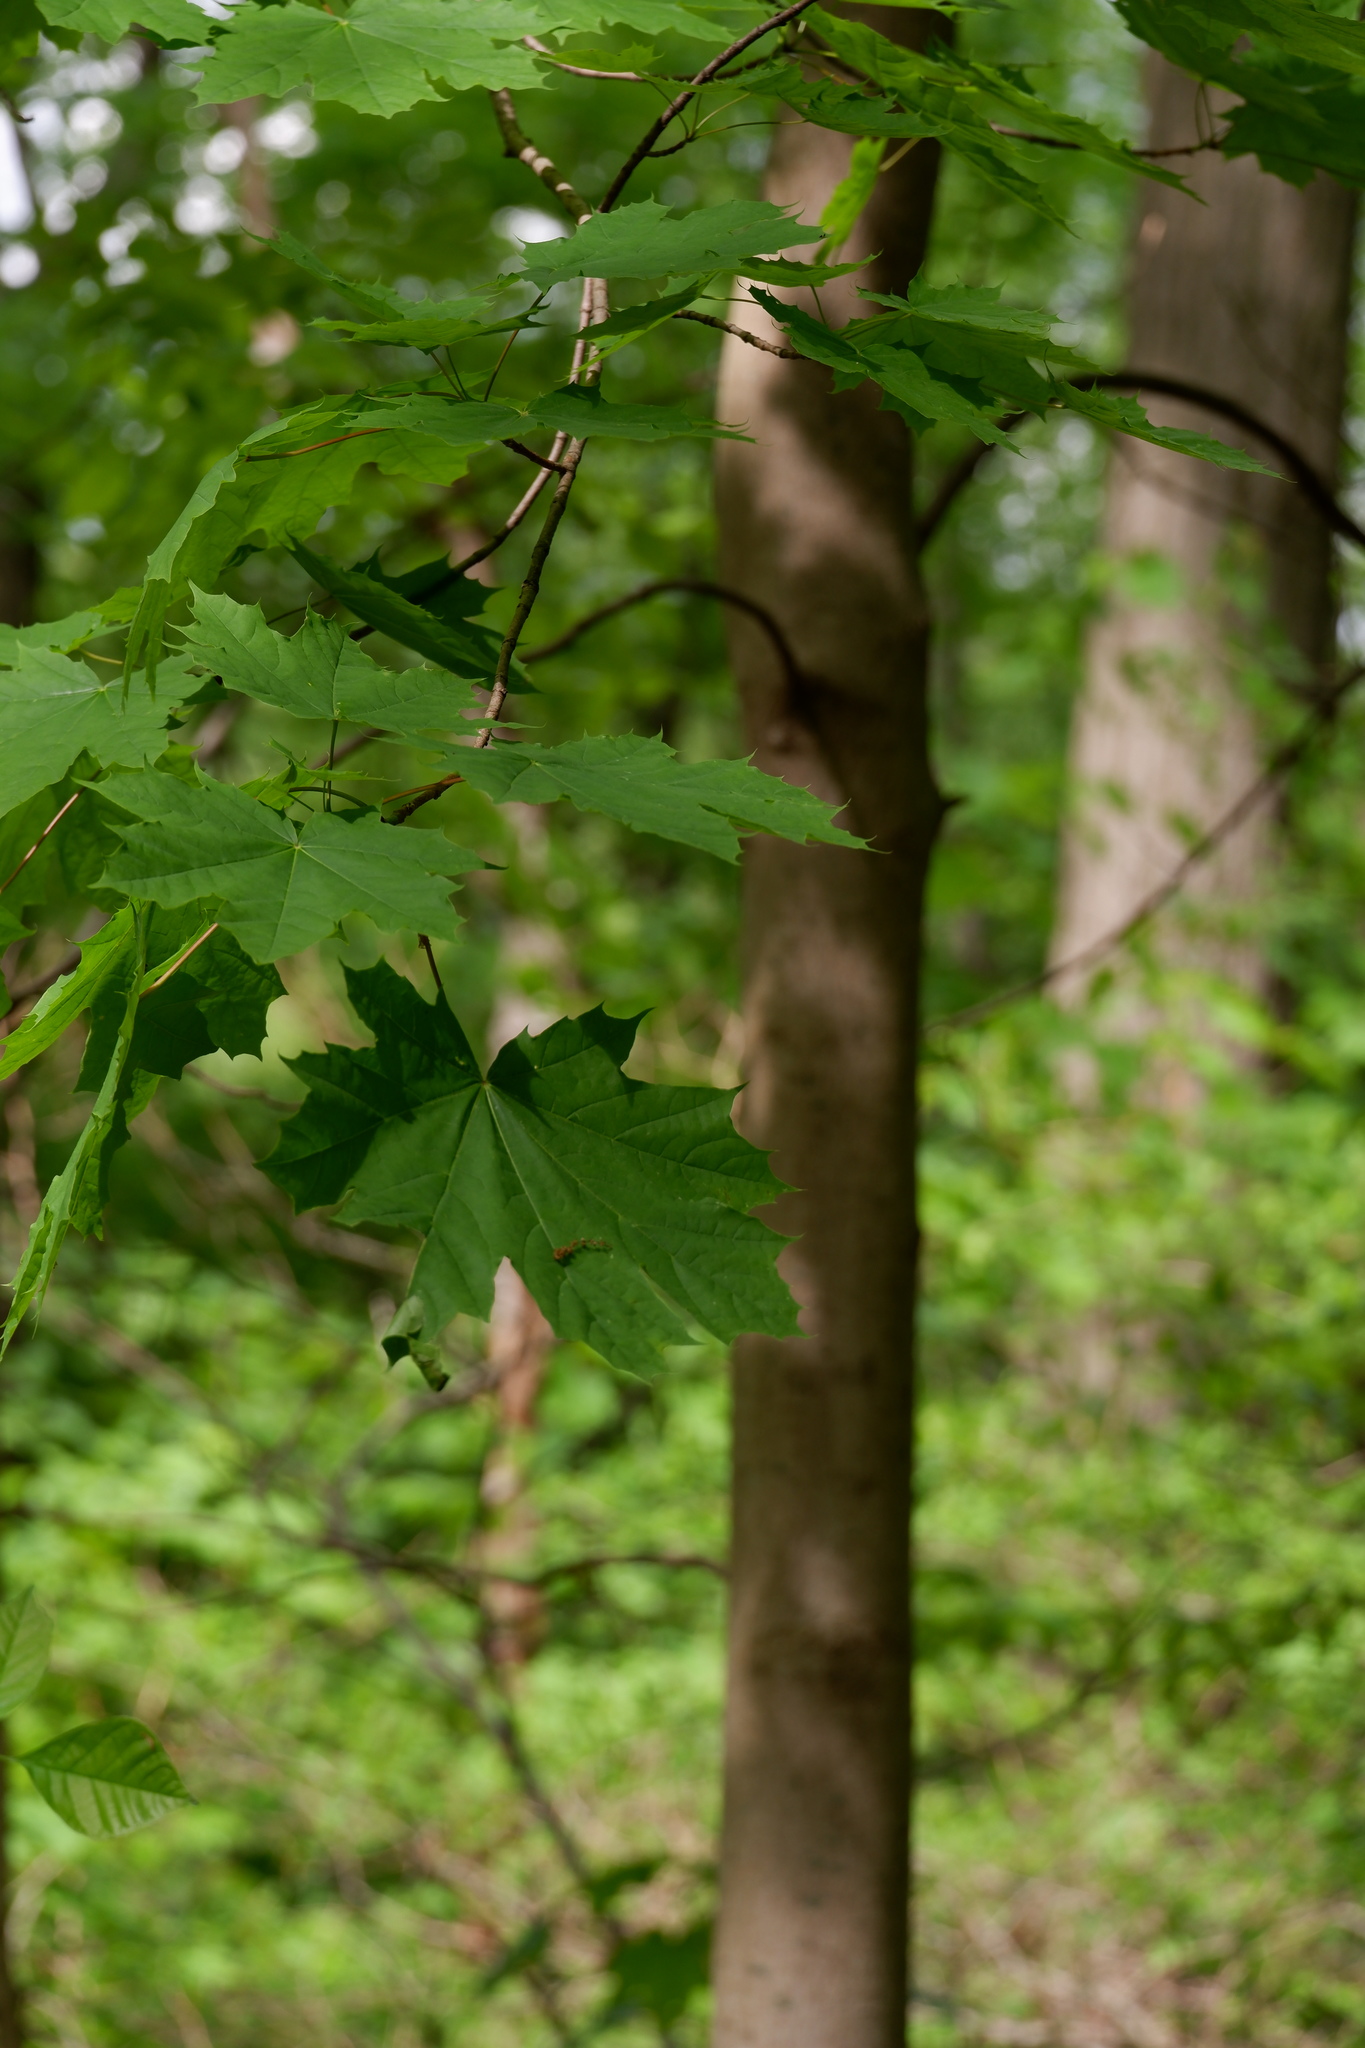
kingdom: Plantae
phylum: Tracheophyta
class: Magnoliopsida
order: Sapindales
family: Sapindaceae
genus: Acer
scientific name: Acer platanoides
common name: Norway maple
